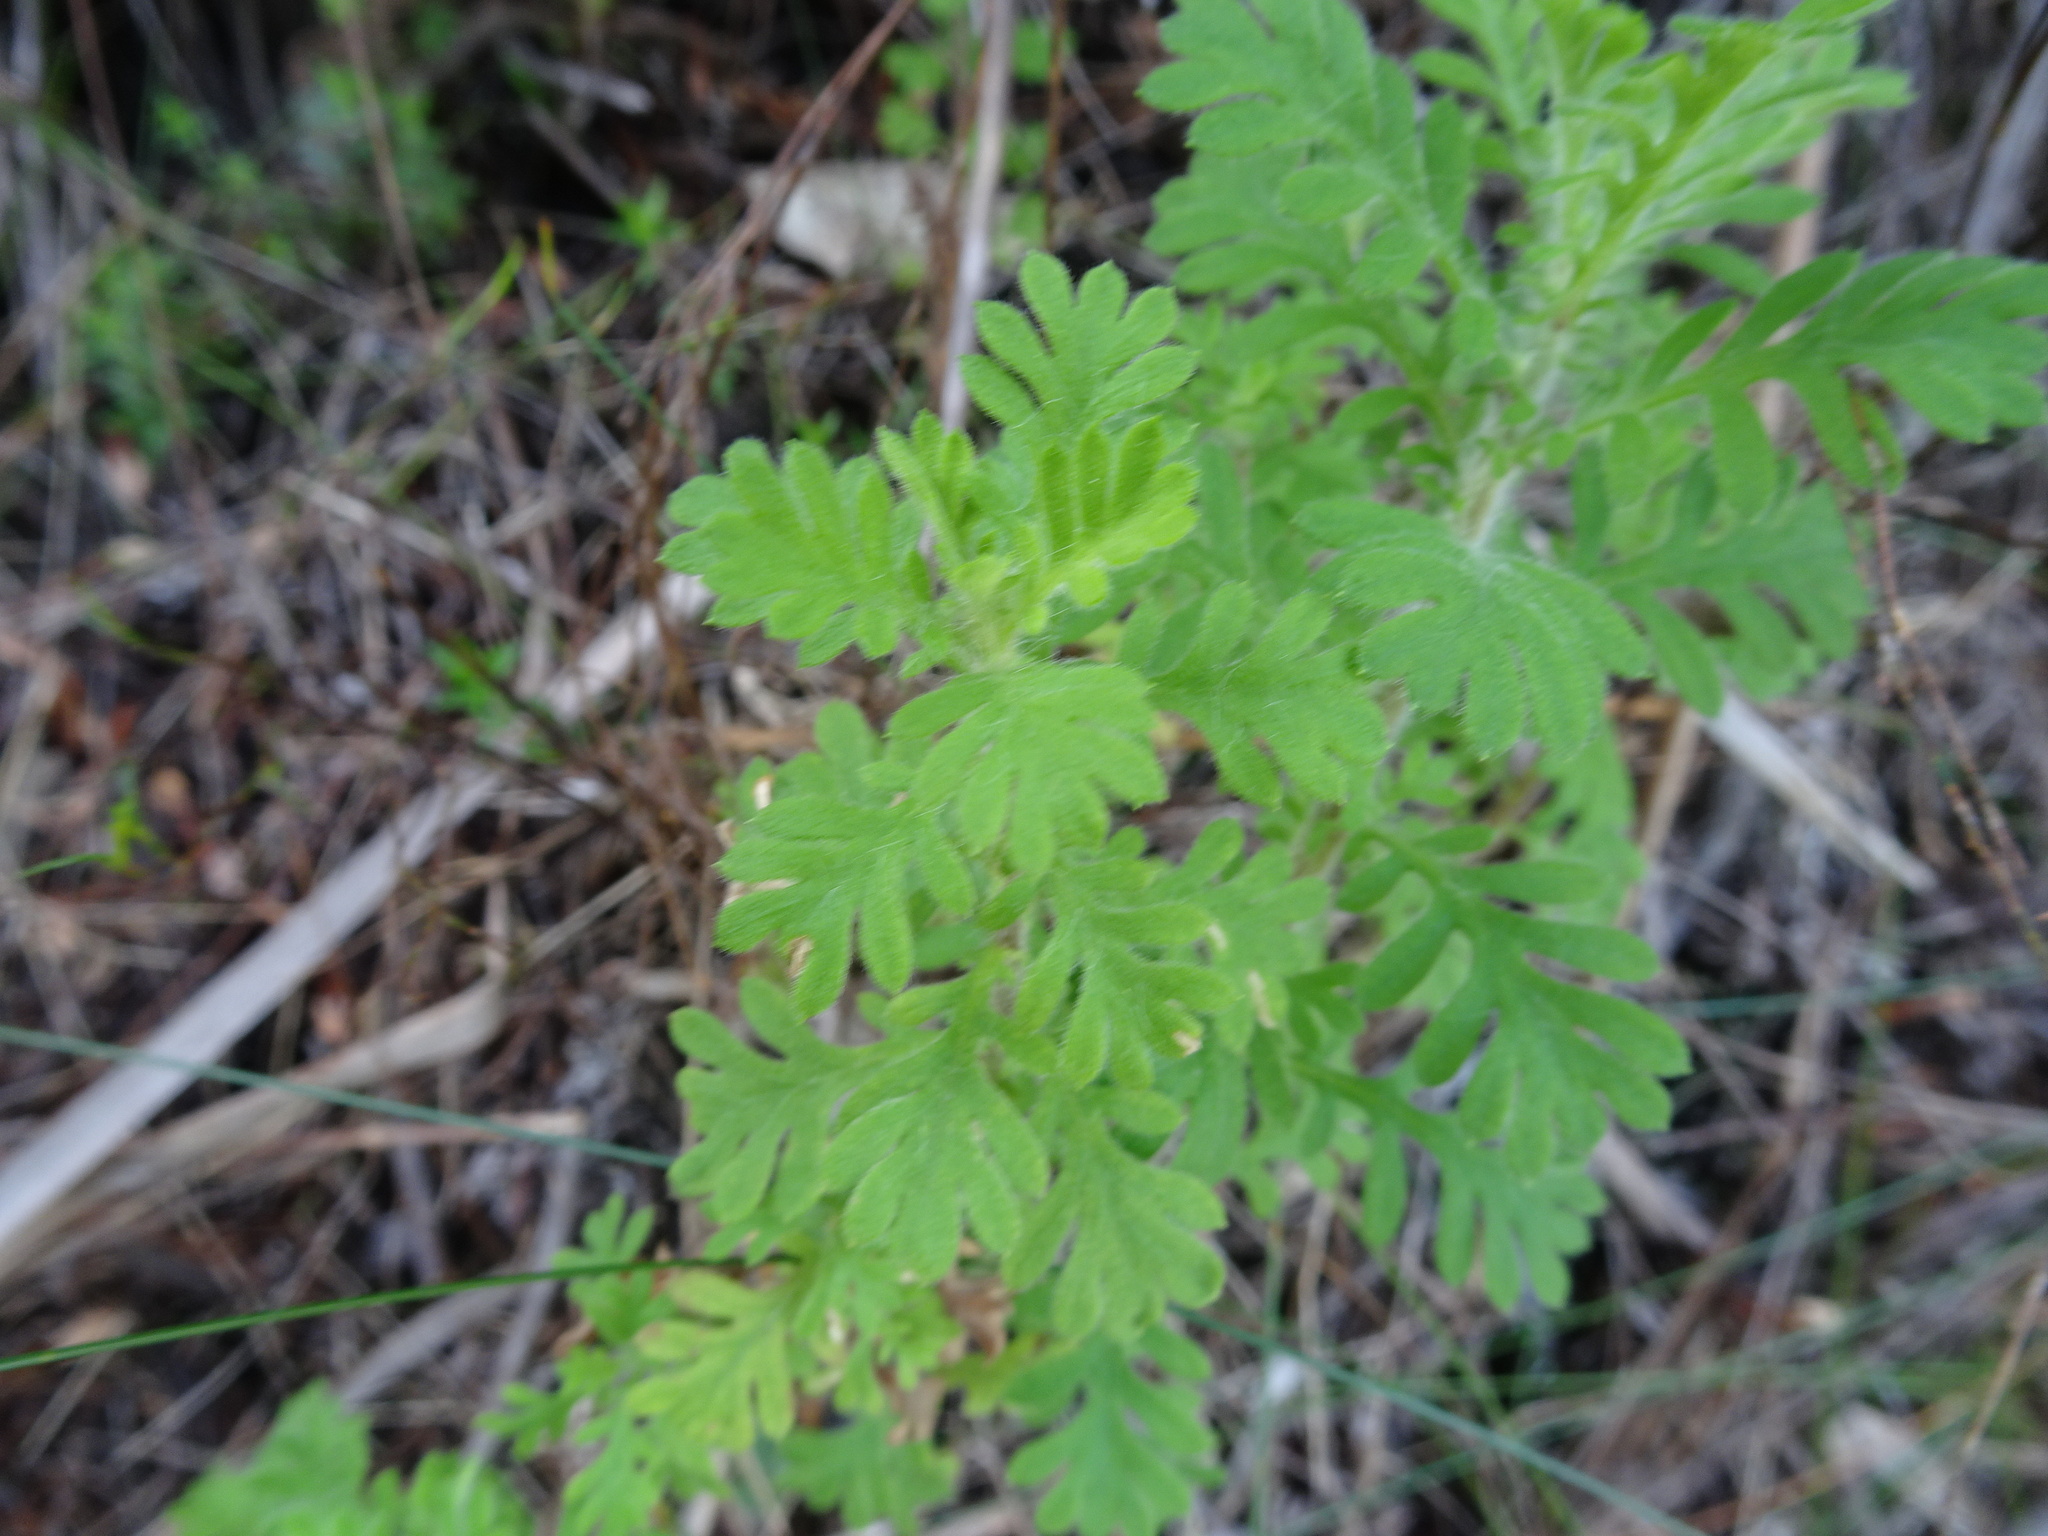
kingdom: Plantae
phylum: Tracheophyta
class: Magnoliopsida
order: Asterales
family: Asteraceae
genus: Hippia
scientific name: Hippia frutescens
